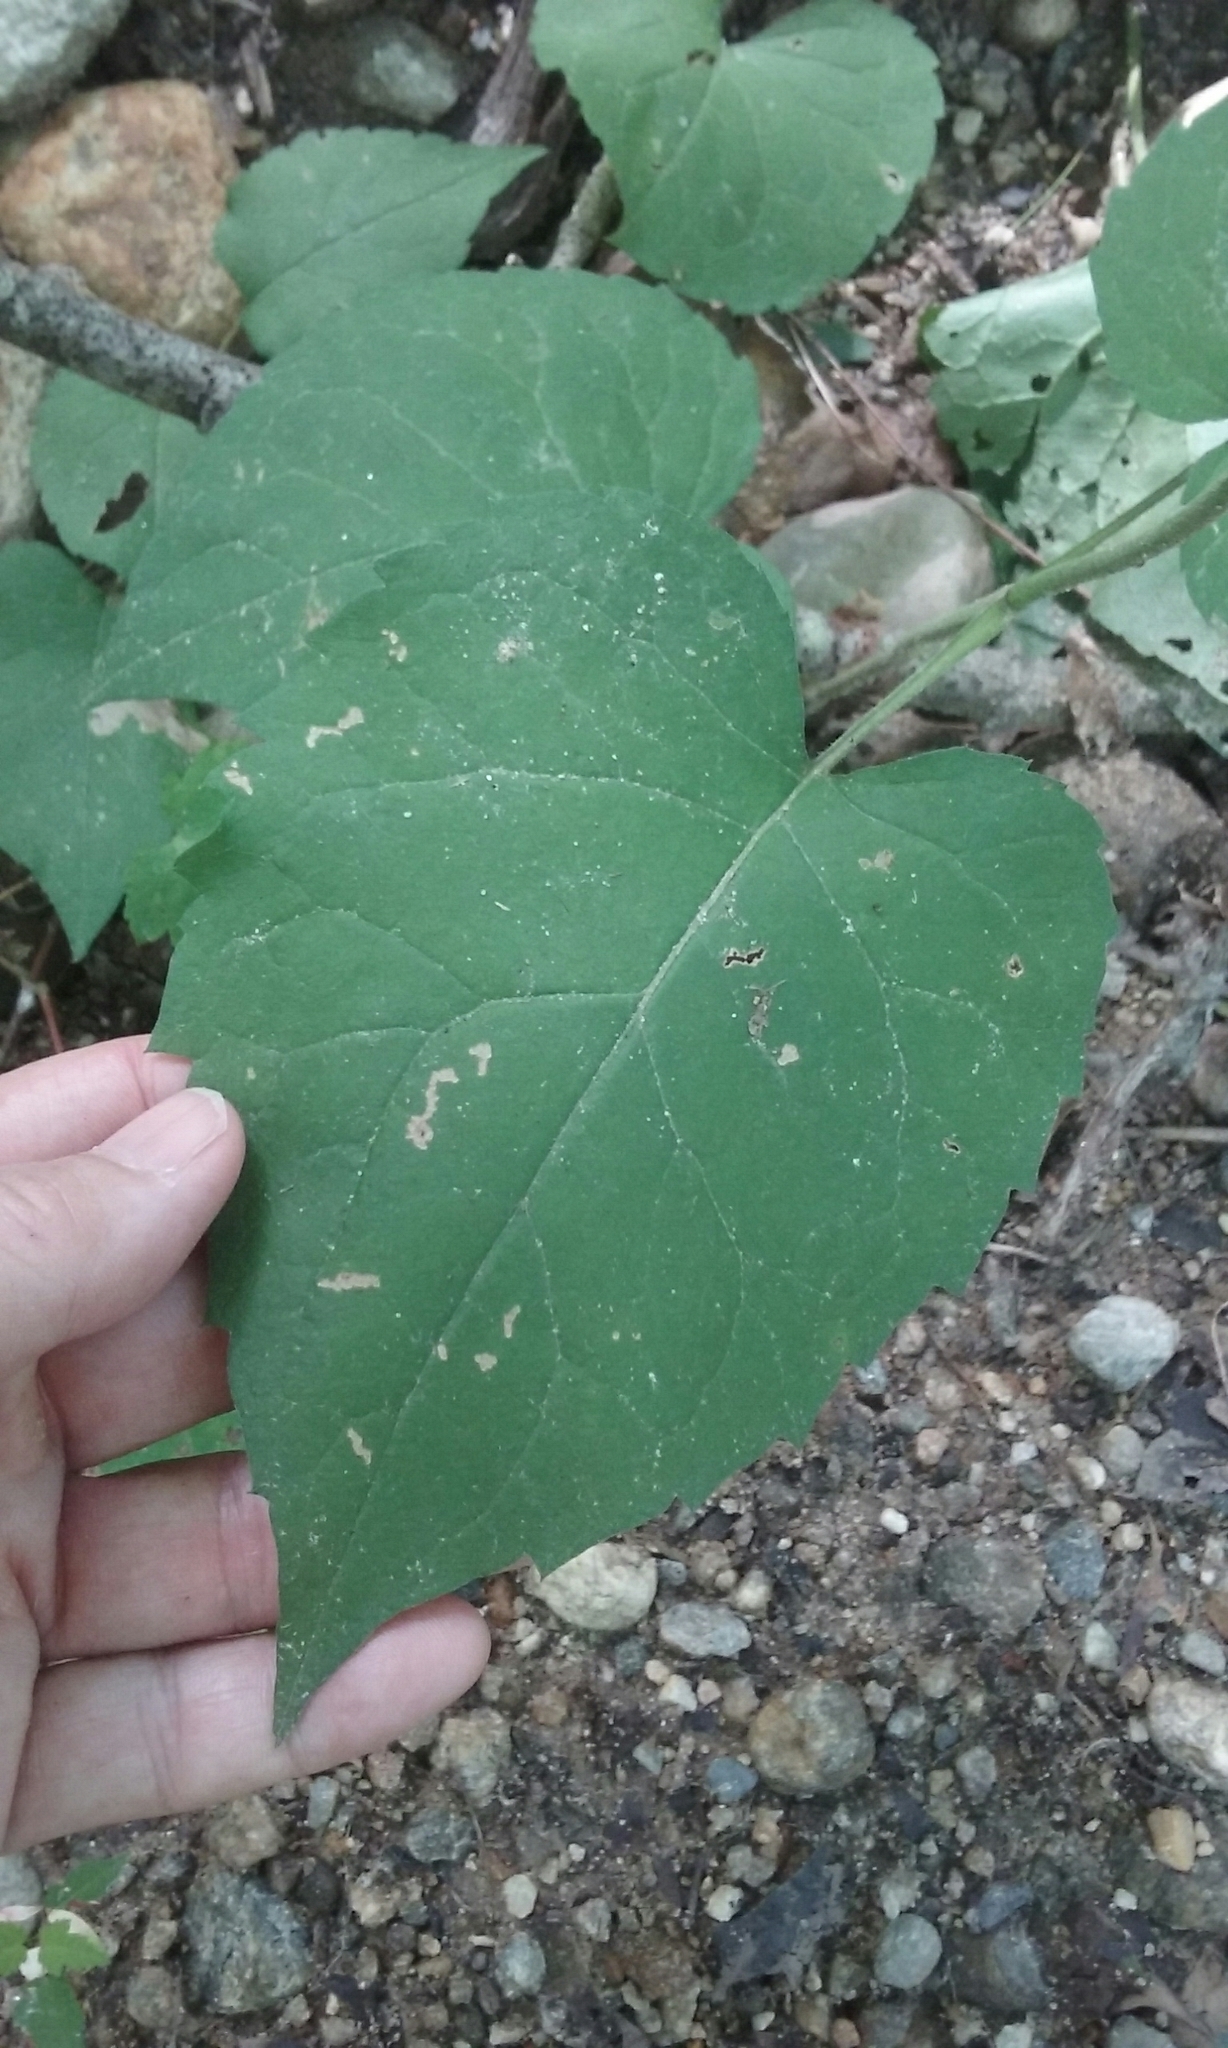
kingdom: Plantae
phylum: Tracheophyta
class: Magnoliopsida
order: Asterales
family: Asteraceae
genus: Eurybia
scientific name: Eurybia macrophylla
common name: Big-leaved aster
